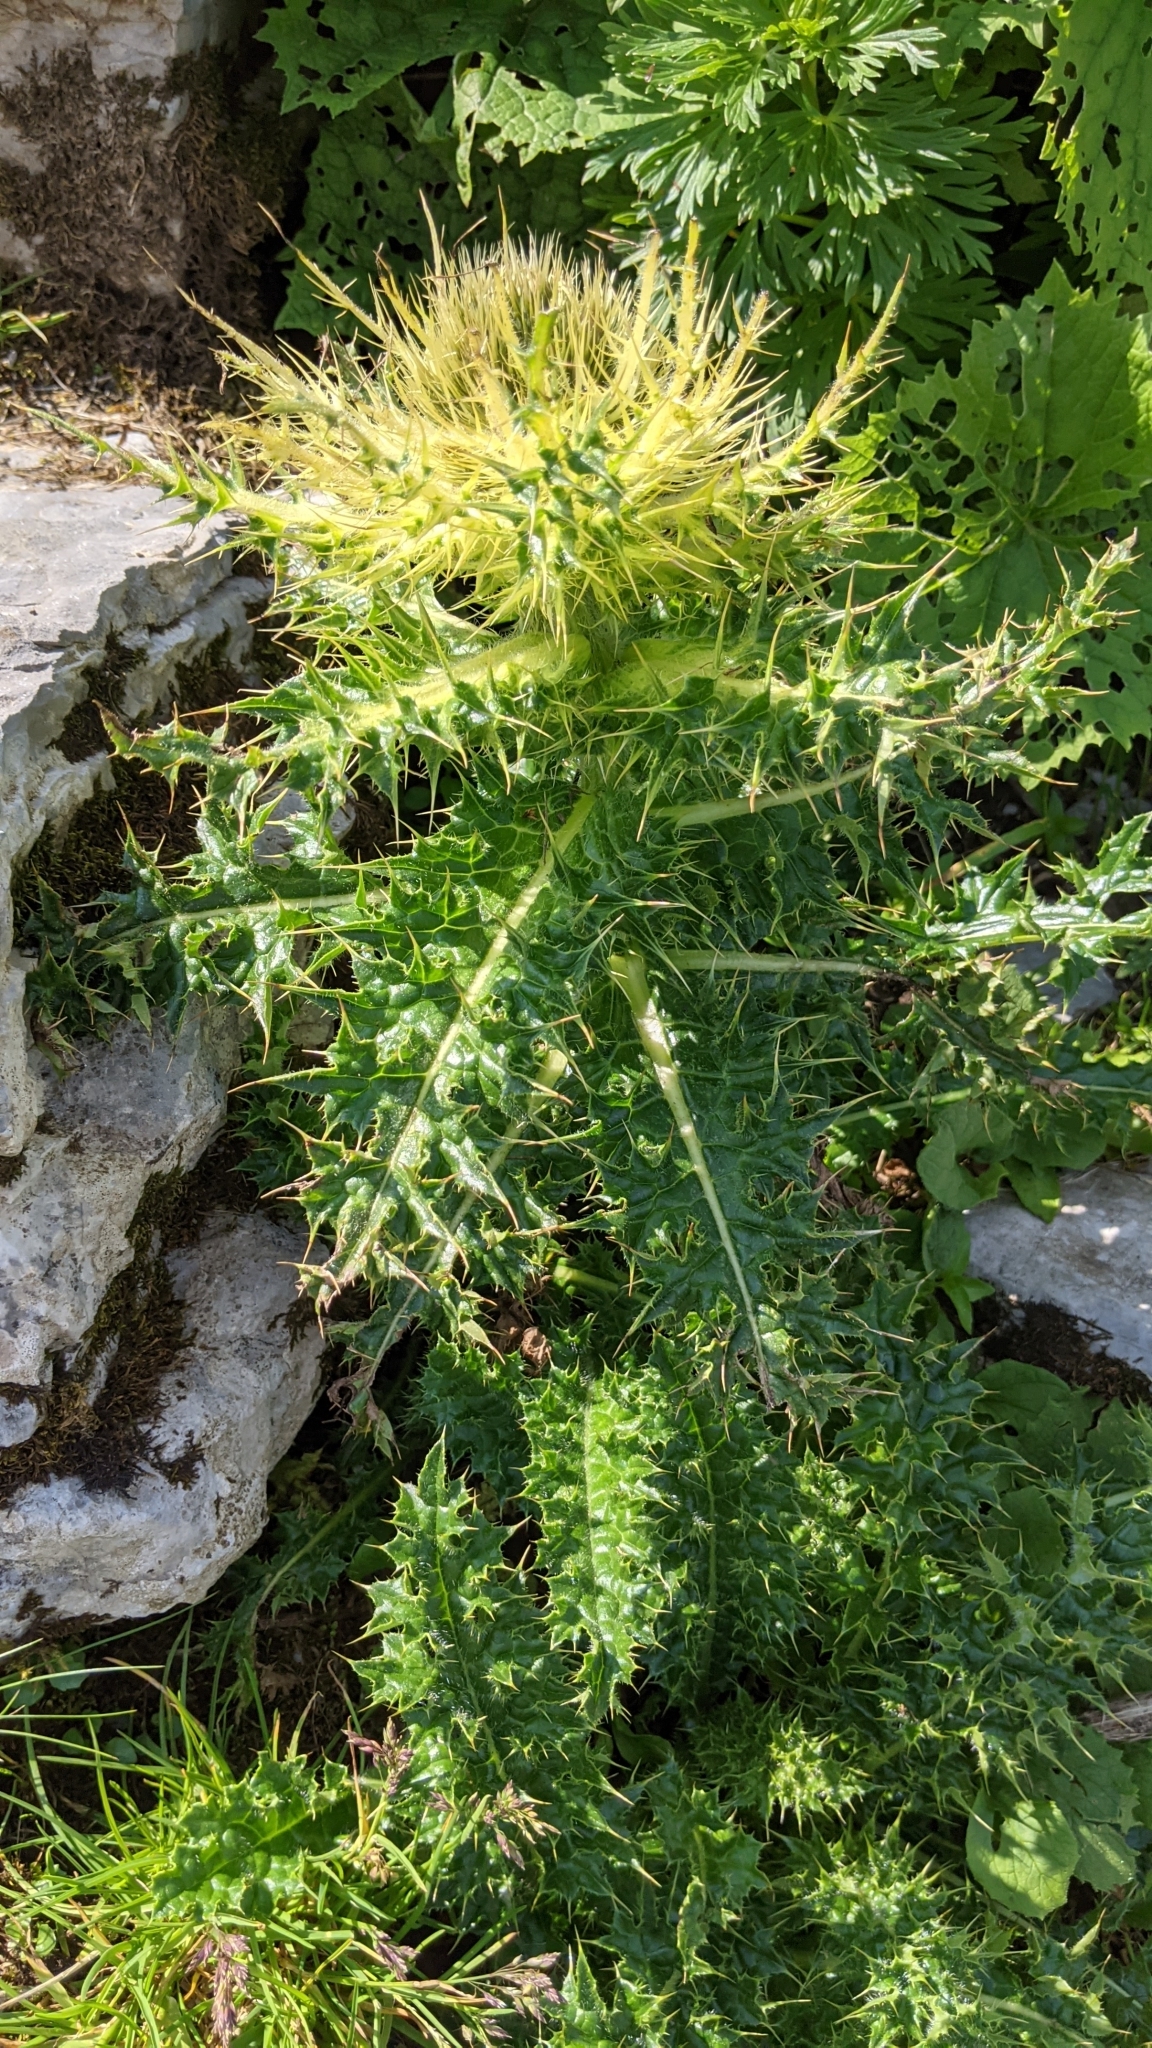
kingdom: Plantae
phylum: Tracheophyta
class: Magnoliopsida
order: Asterales
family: Asteraceae
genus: Cirsium
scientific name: Cirsium spinosissimum
